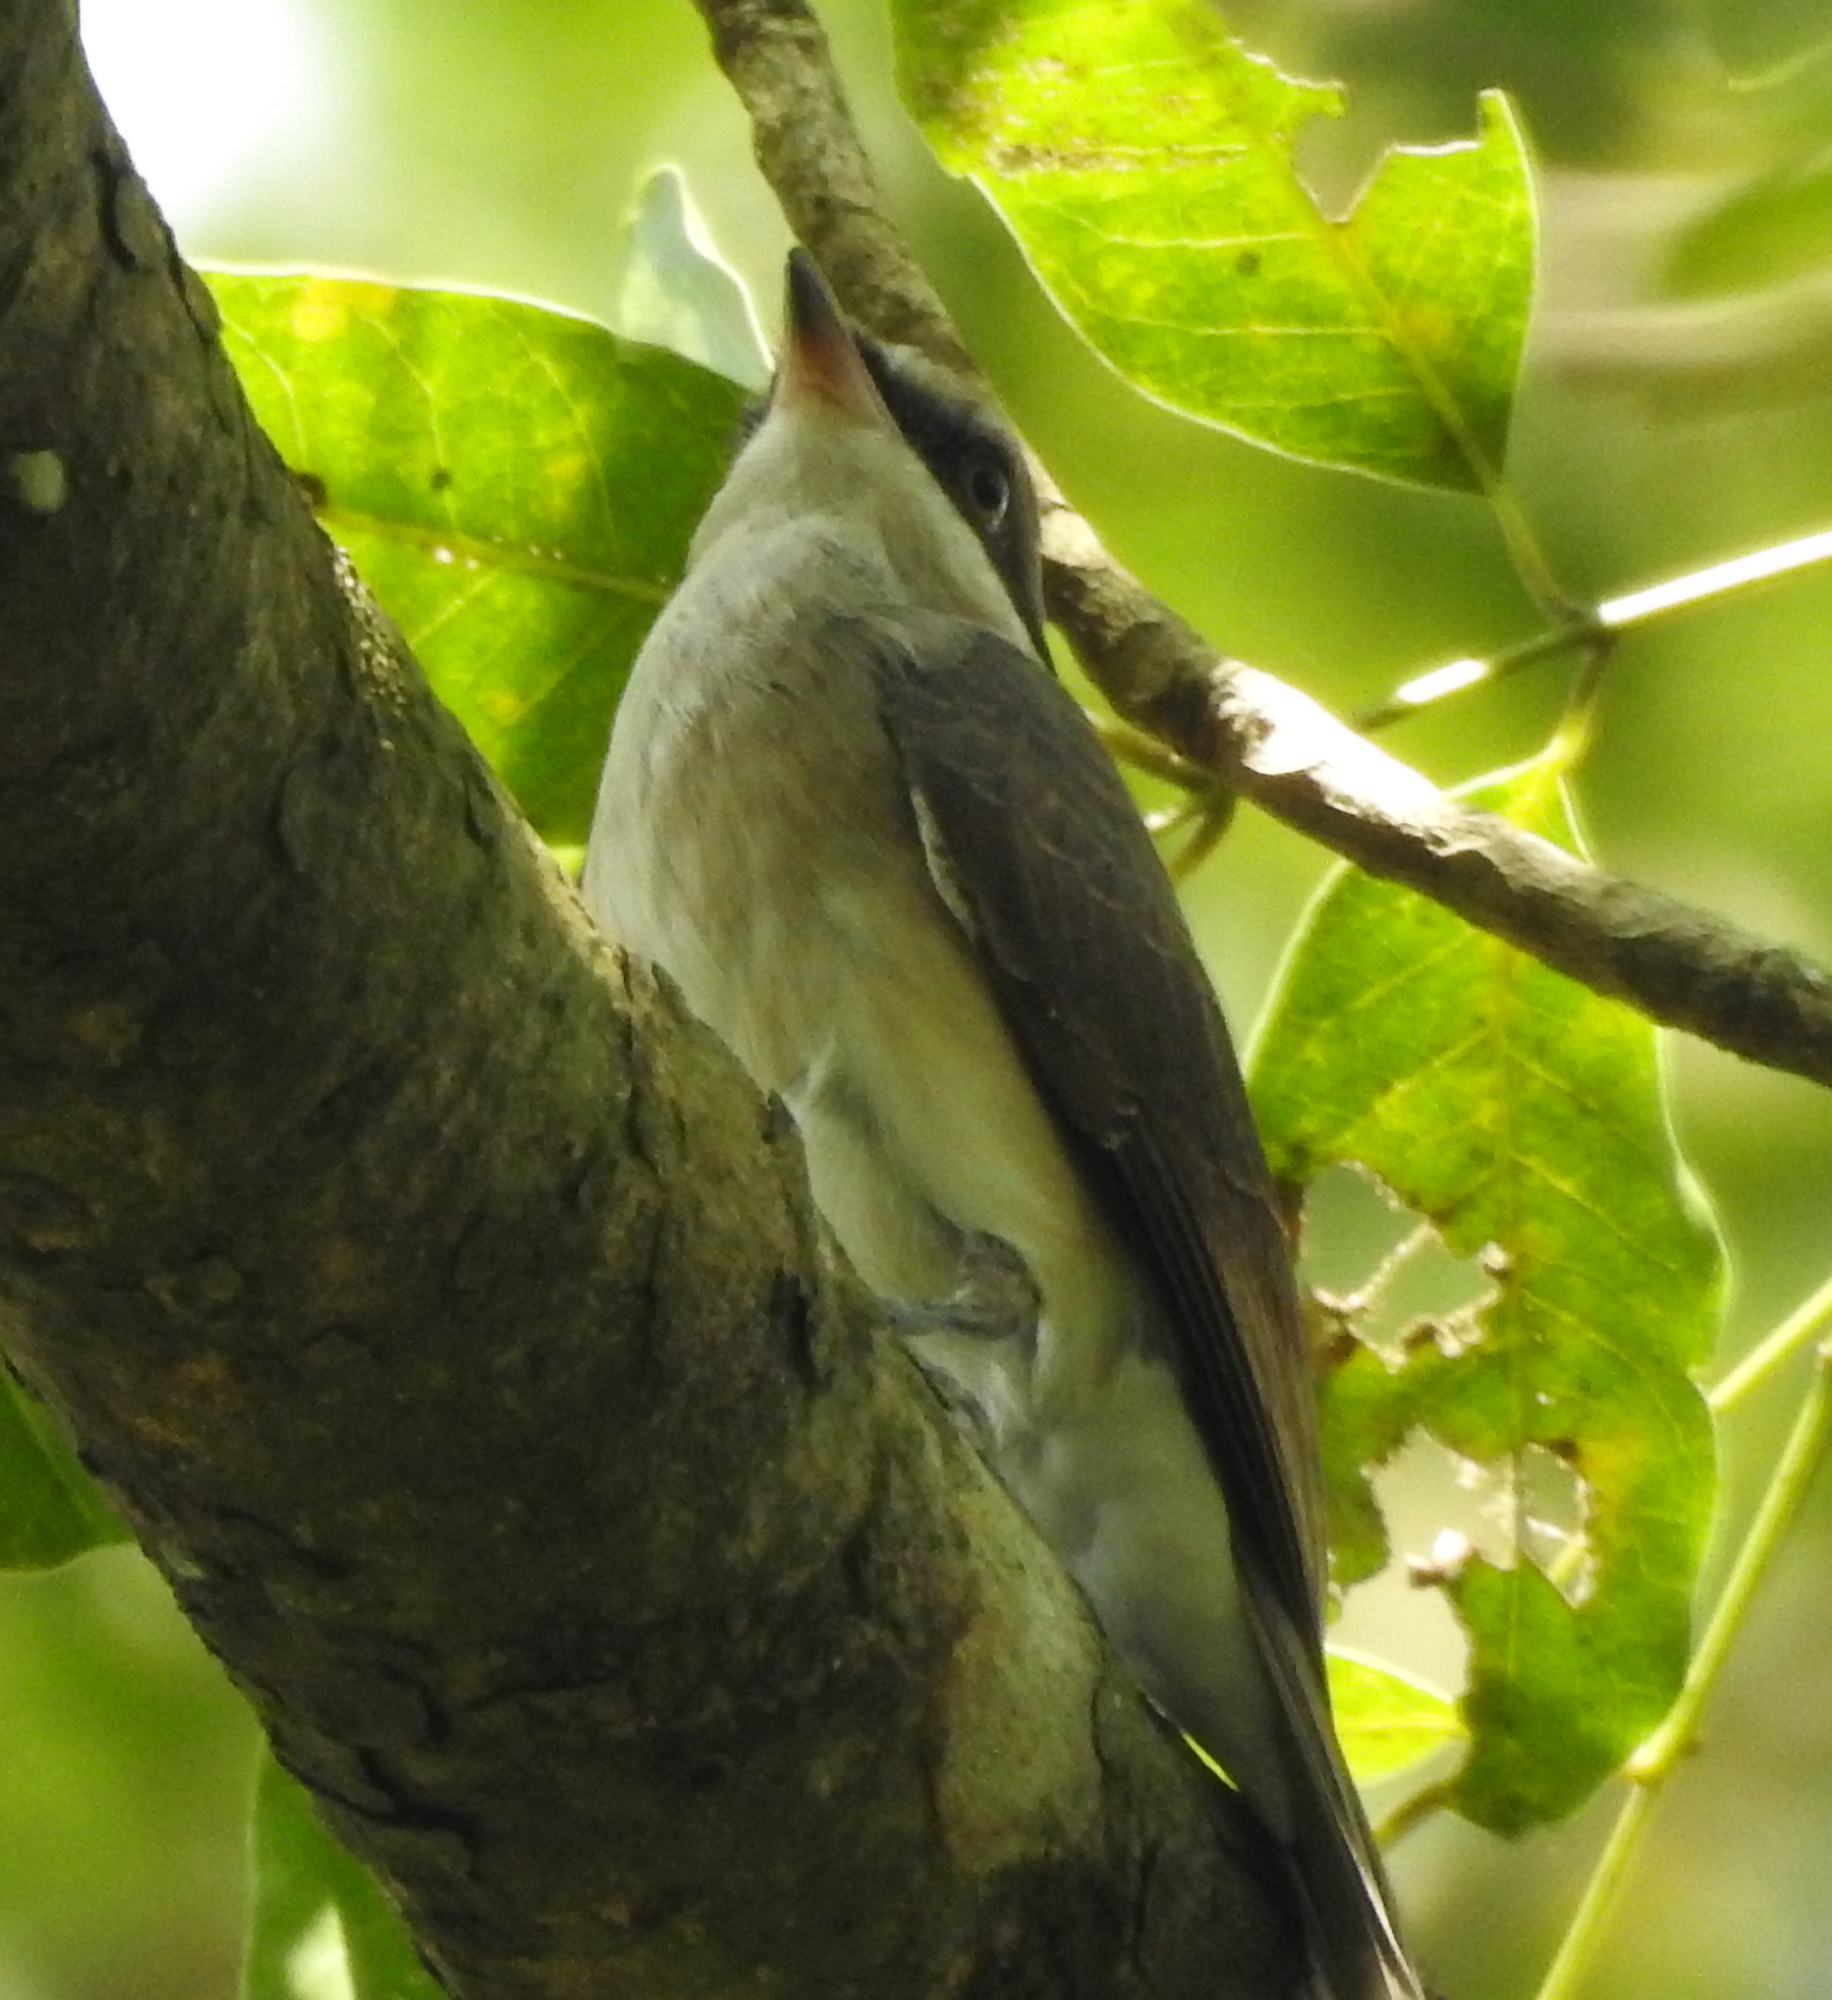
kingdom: Animalia
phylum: Chordata
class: Aves
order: Passeriformes
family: Tephrodornithidae
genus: Tephrodornis
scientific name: Tephrodornis virgatus
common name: Large woodshrike
